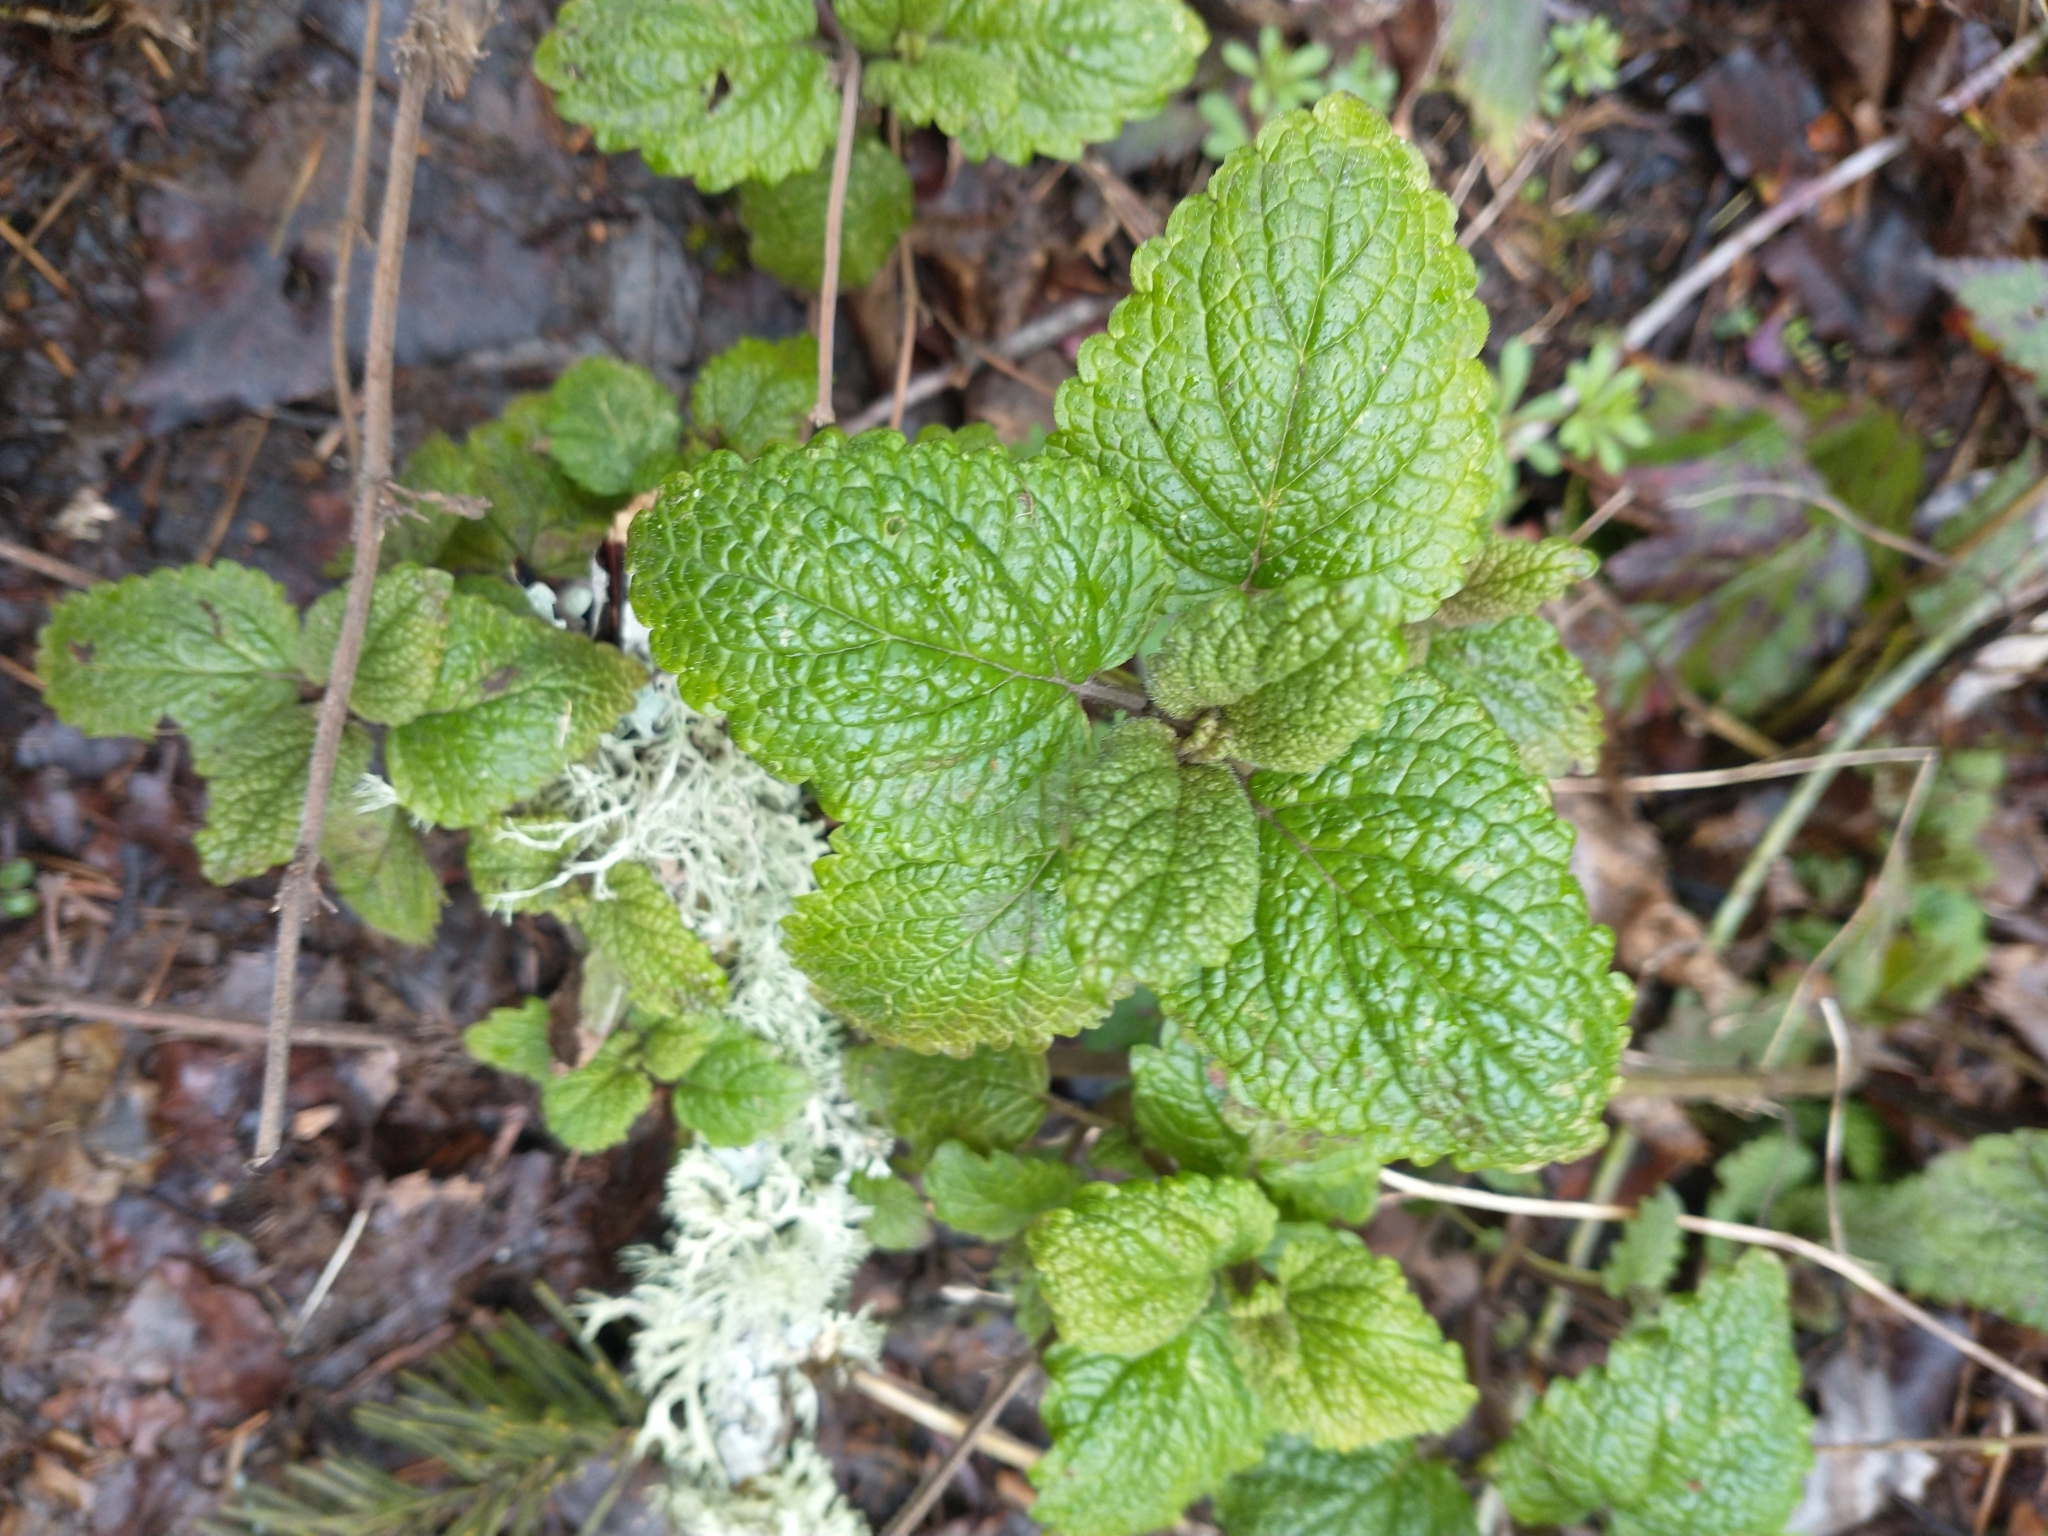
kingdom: Plantae
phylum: Tracheophyta
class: Magnoliopsida
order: Lamiales
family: Lamiaceae
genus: Melissa
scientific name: Melissa officinalis
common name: Balm
